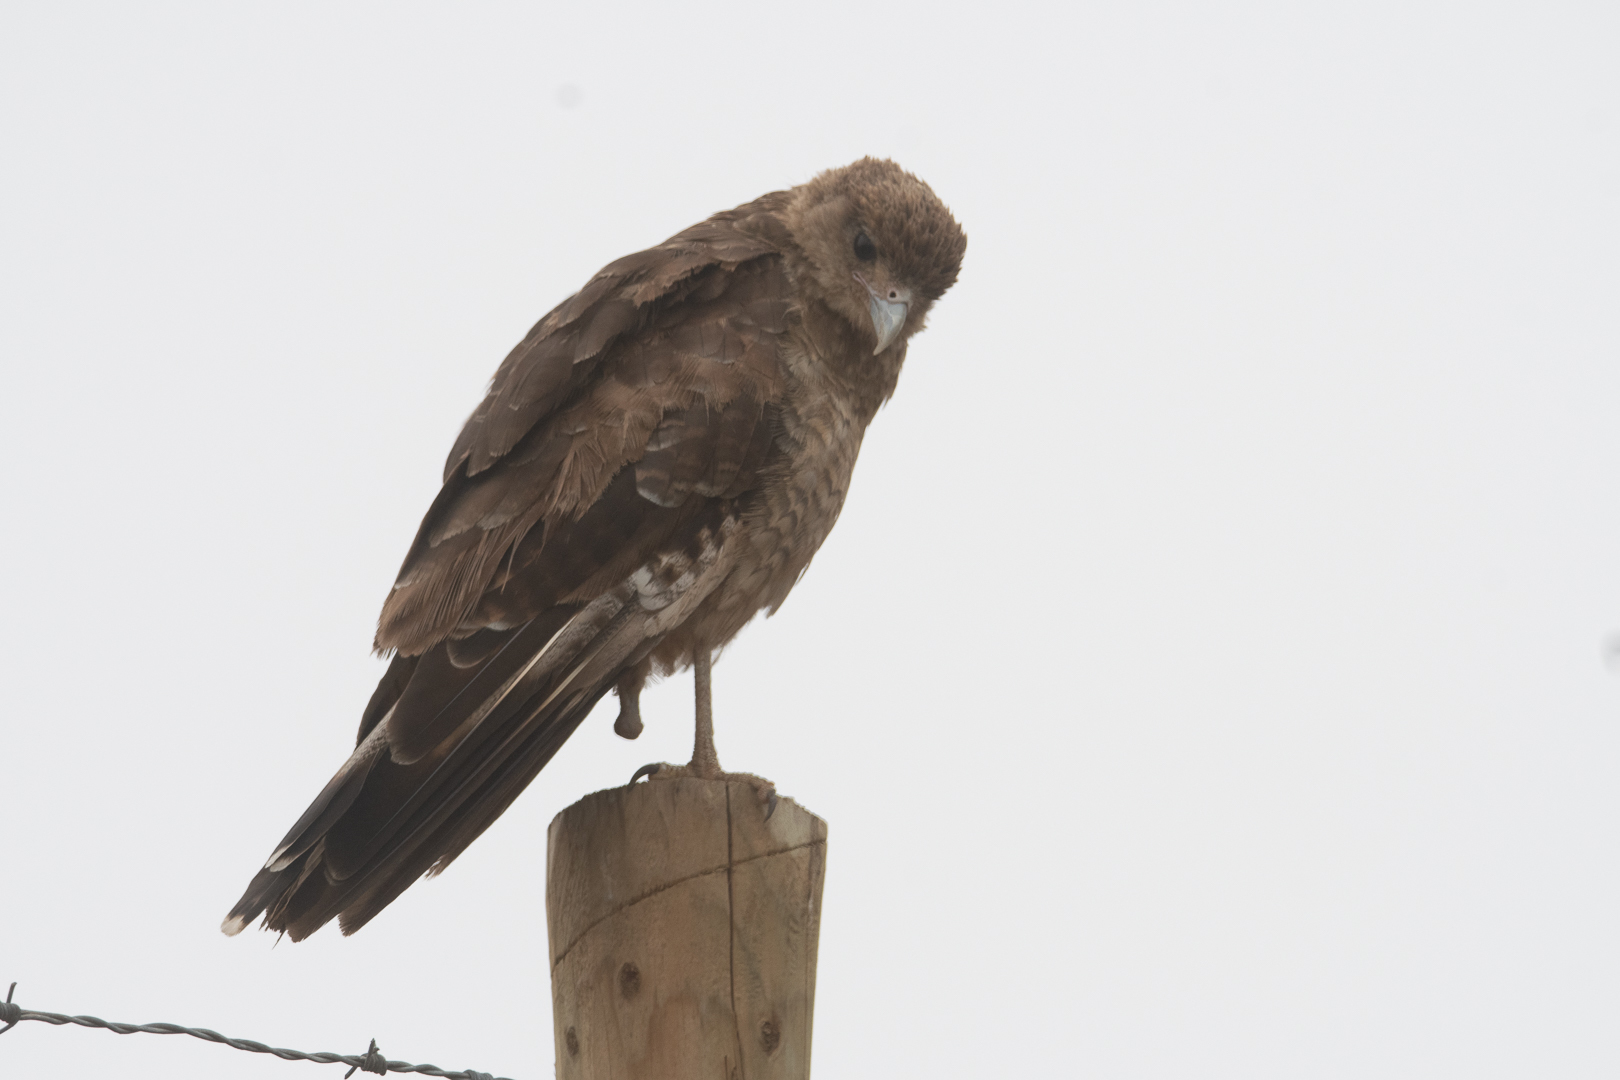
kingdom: Animalia
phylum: Chordata
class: Aves
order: Falconiformes
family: Falconidae
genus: Daptrius
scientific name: Daptrius
